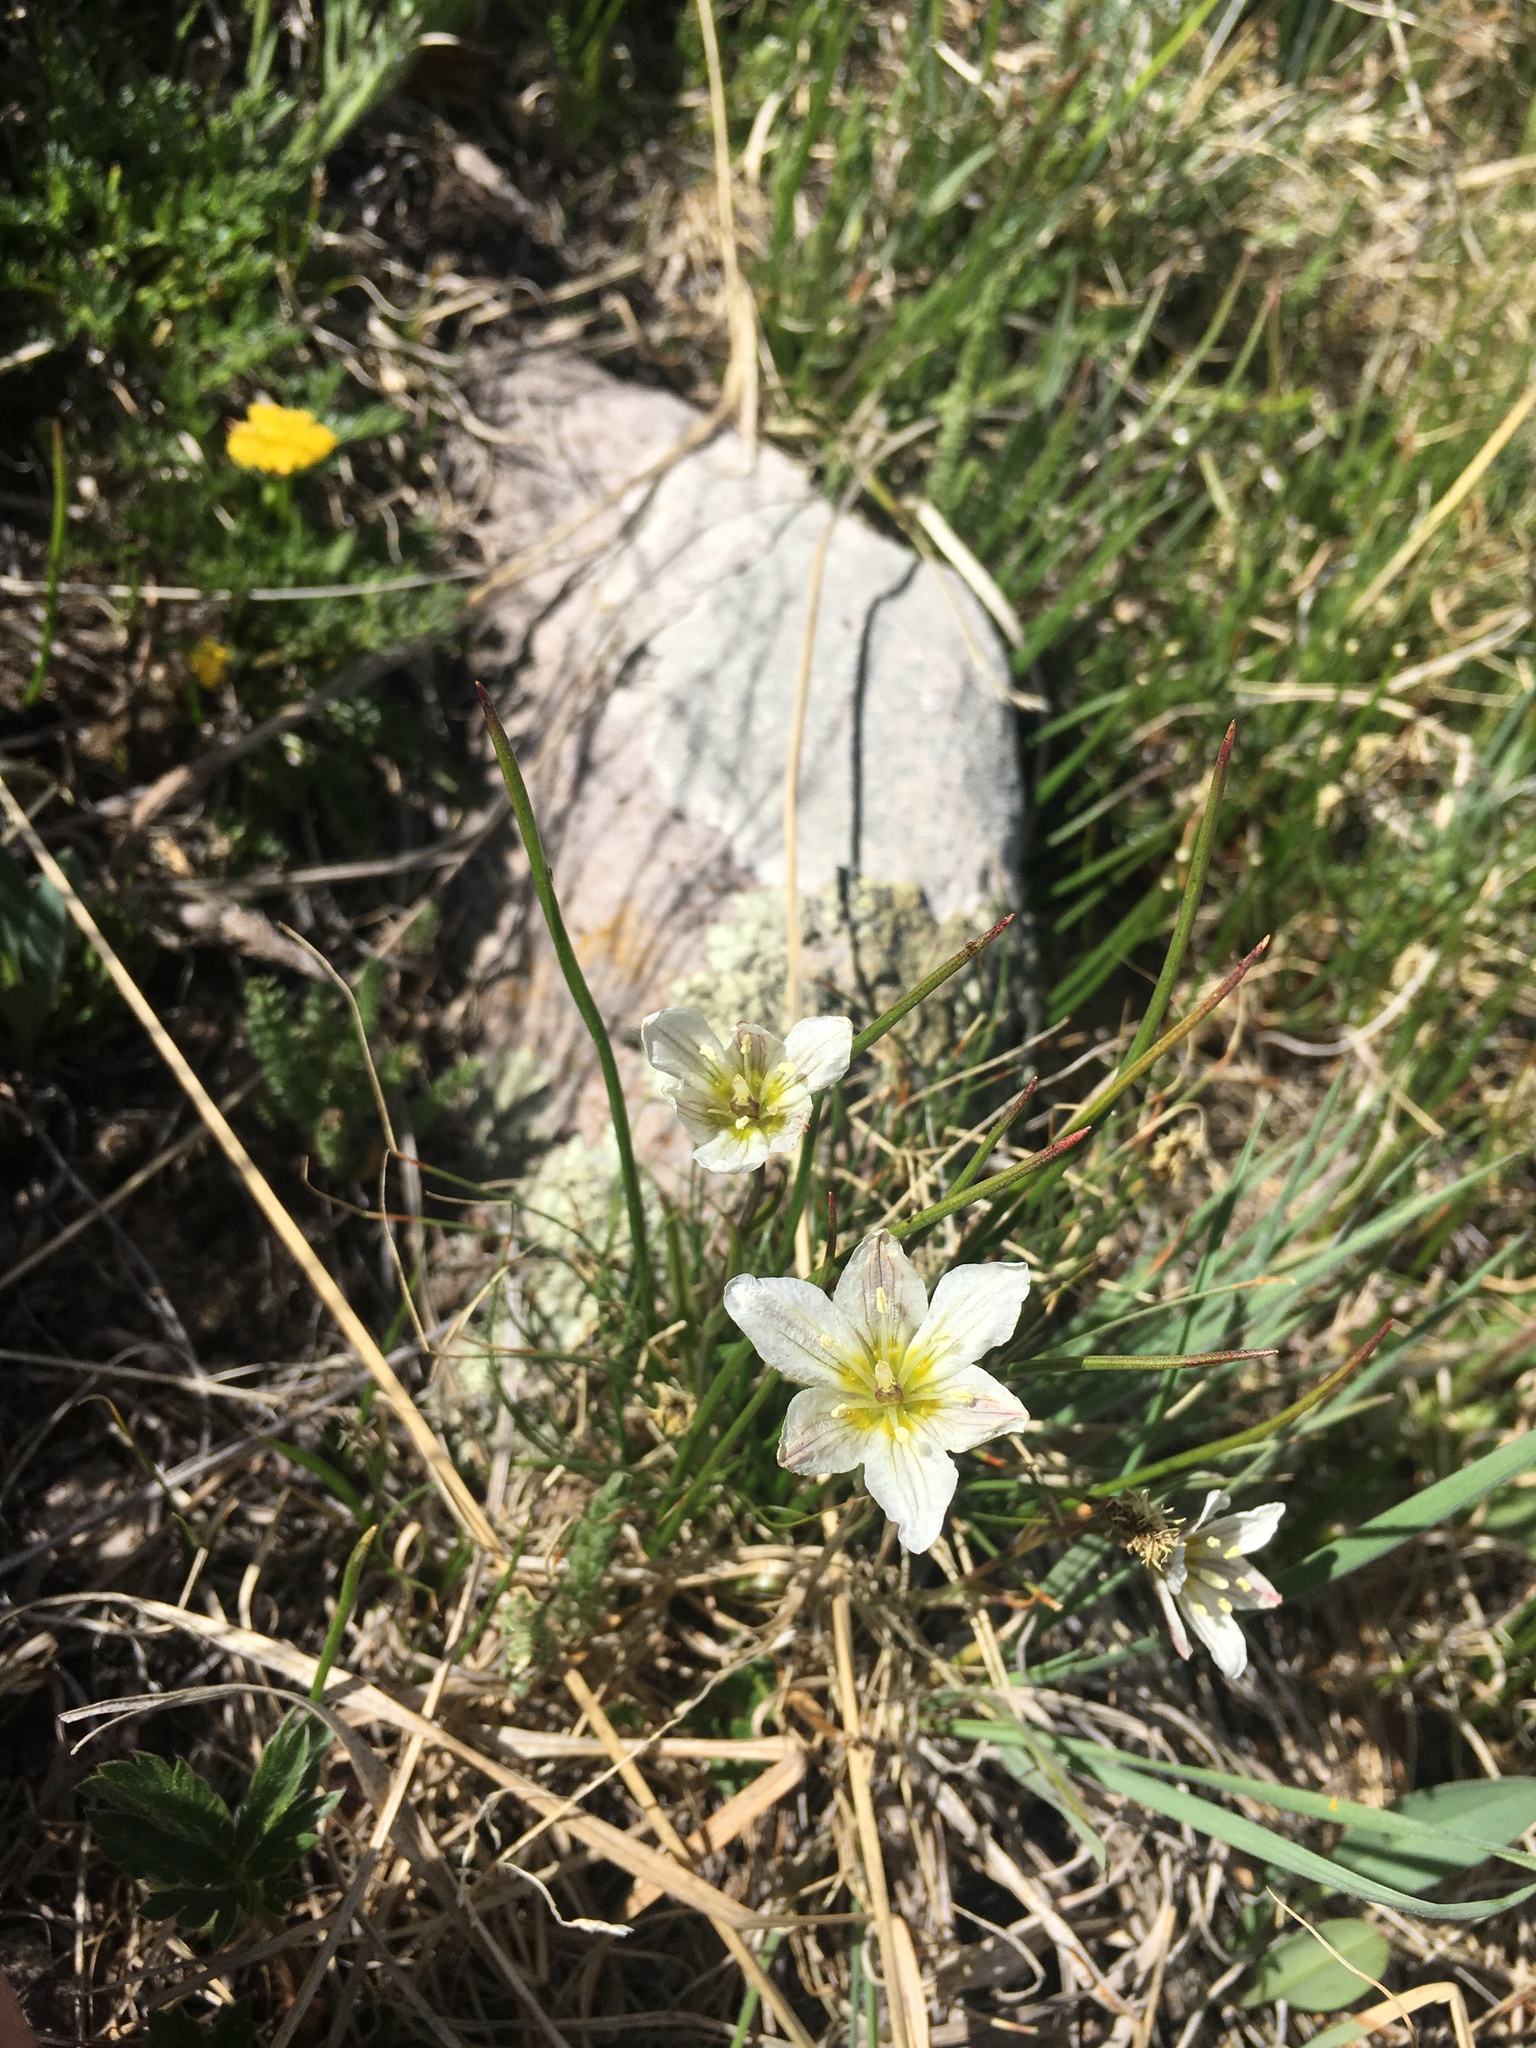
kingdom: Plantae
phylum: Tracheophyta
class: Liliopsida
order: Liliales
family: Liliaceae
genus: Gagea
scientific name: Gagea serotina
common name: Snowdon lily
